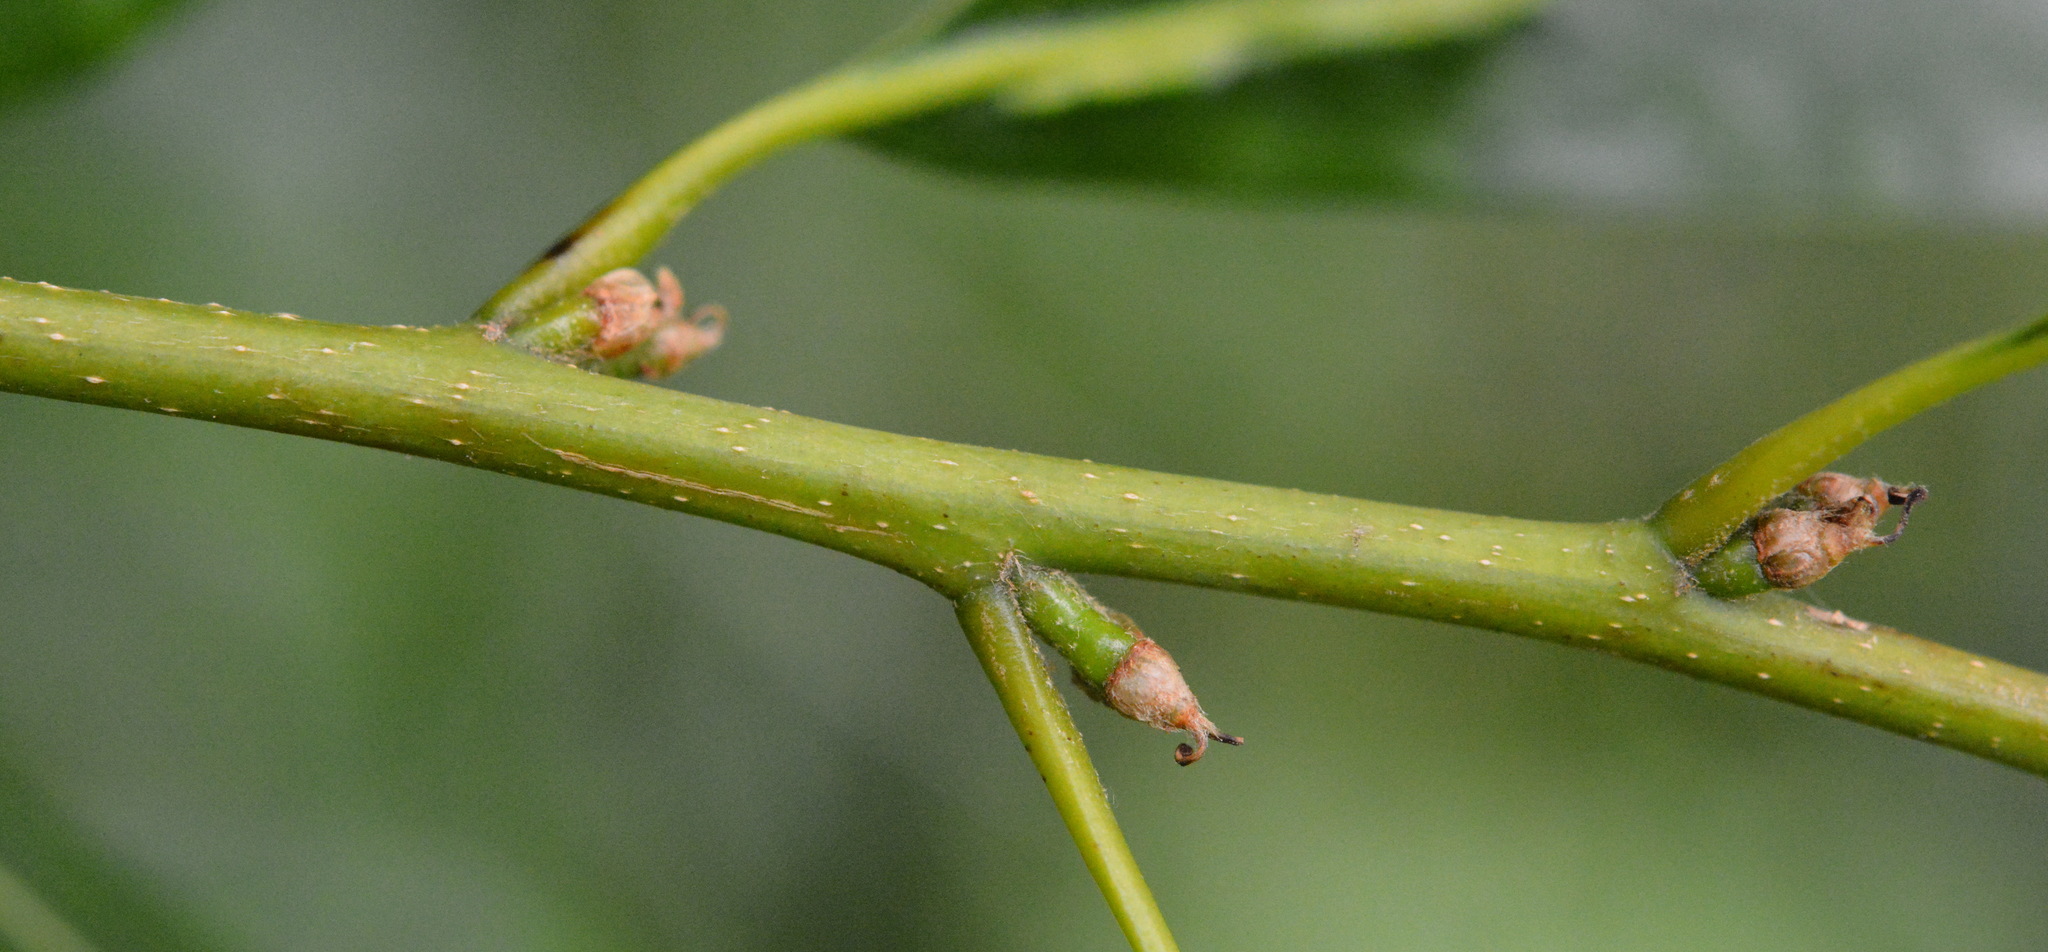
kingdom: Plantae
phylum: Tracheophyta
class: Magnoliopsida
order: Fagales
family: Fagaceae
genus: Quercus
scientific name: Quercus nigra
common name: Water oak
